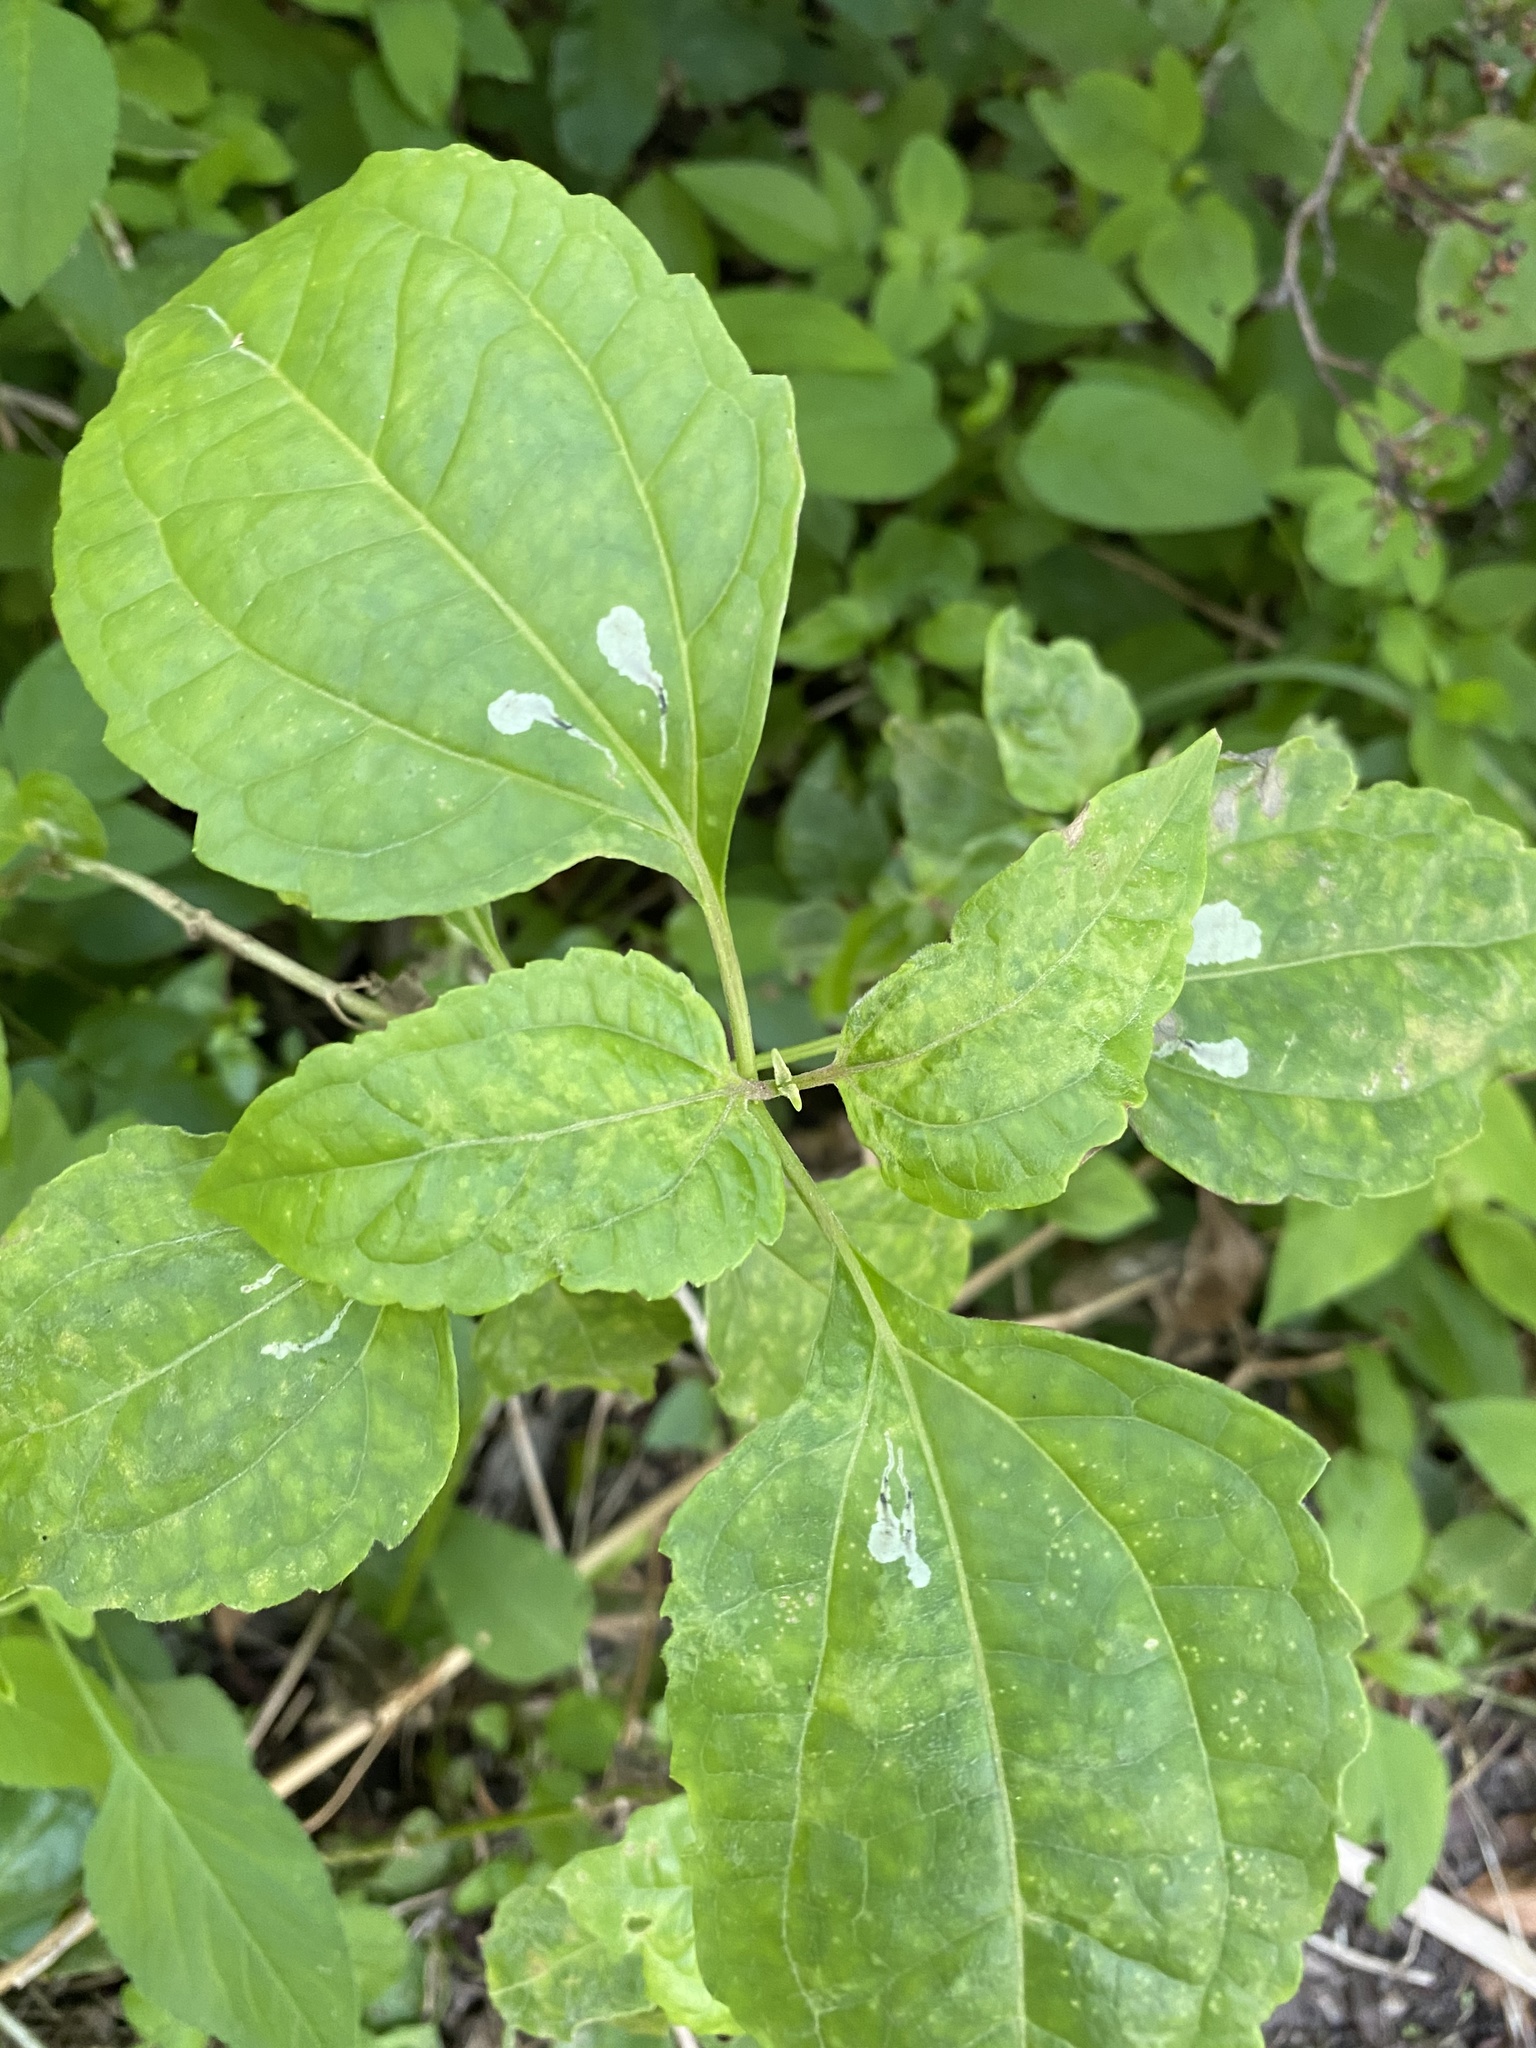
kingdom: Plantae
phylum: Tracheophyta
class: Magnoliopsida
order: Asterales
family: Asteraceae
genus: Chromolaena
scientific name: Chromolaena odorata
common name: Siamweed
